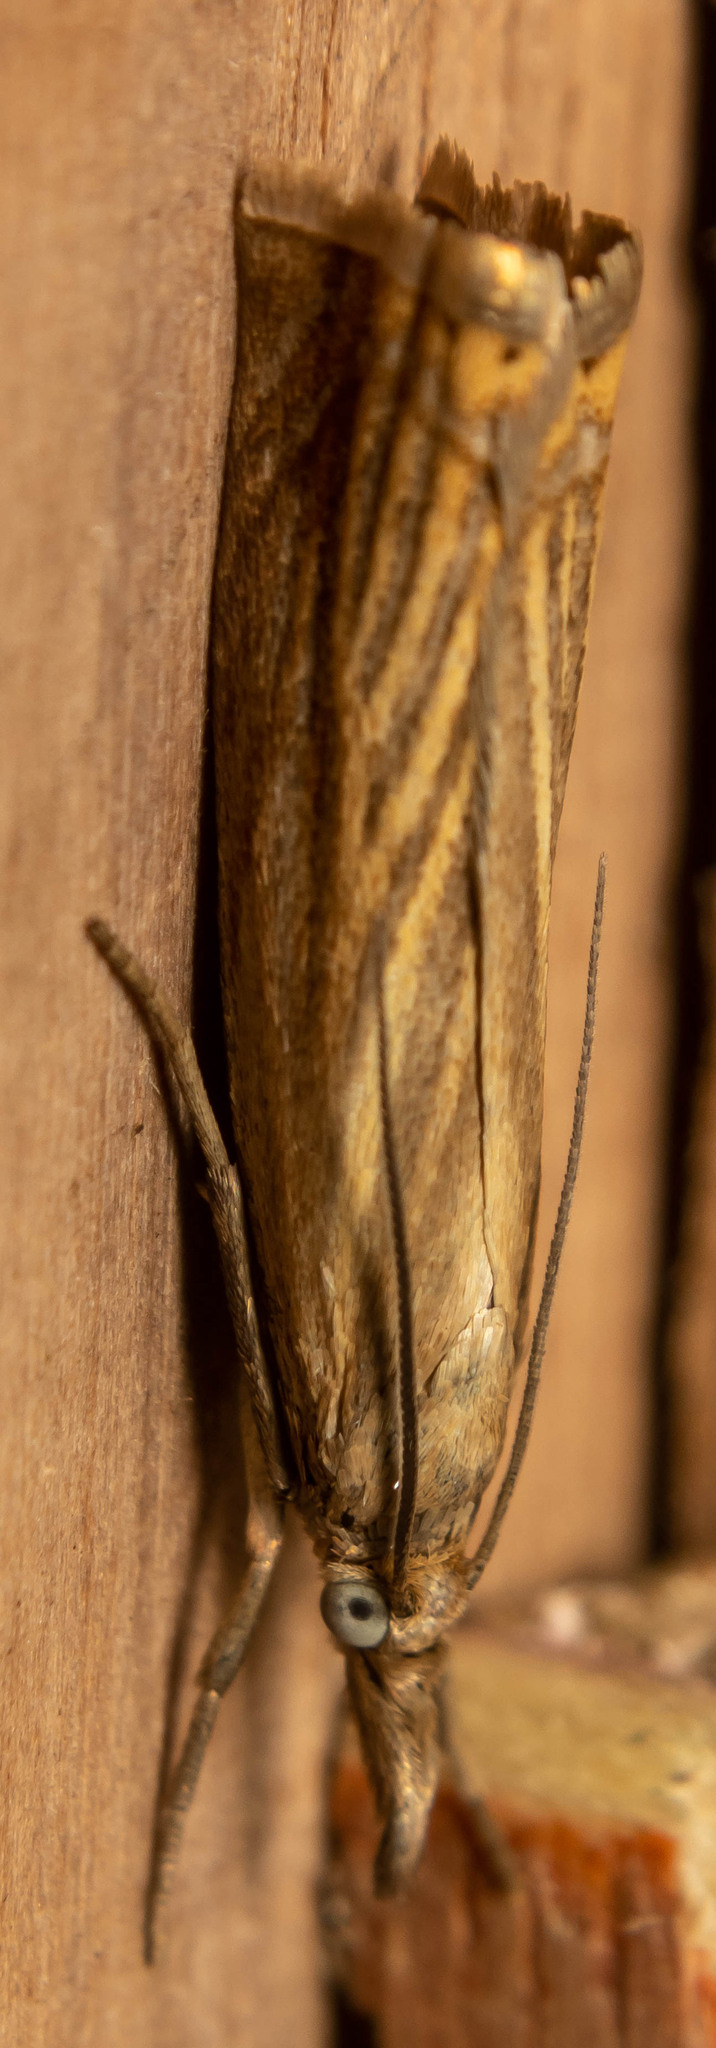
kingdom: Animalia
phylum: Arthropoda
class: Insecta
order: Lepidoptera
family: Crambidae
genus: Chrysoteuchia
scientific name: Chrysoteuchia culmella
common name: Garden grass-veneer
